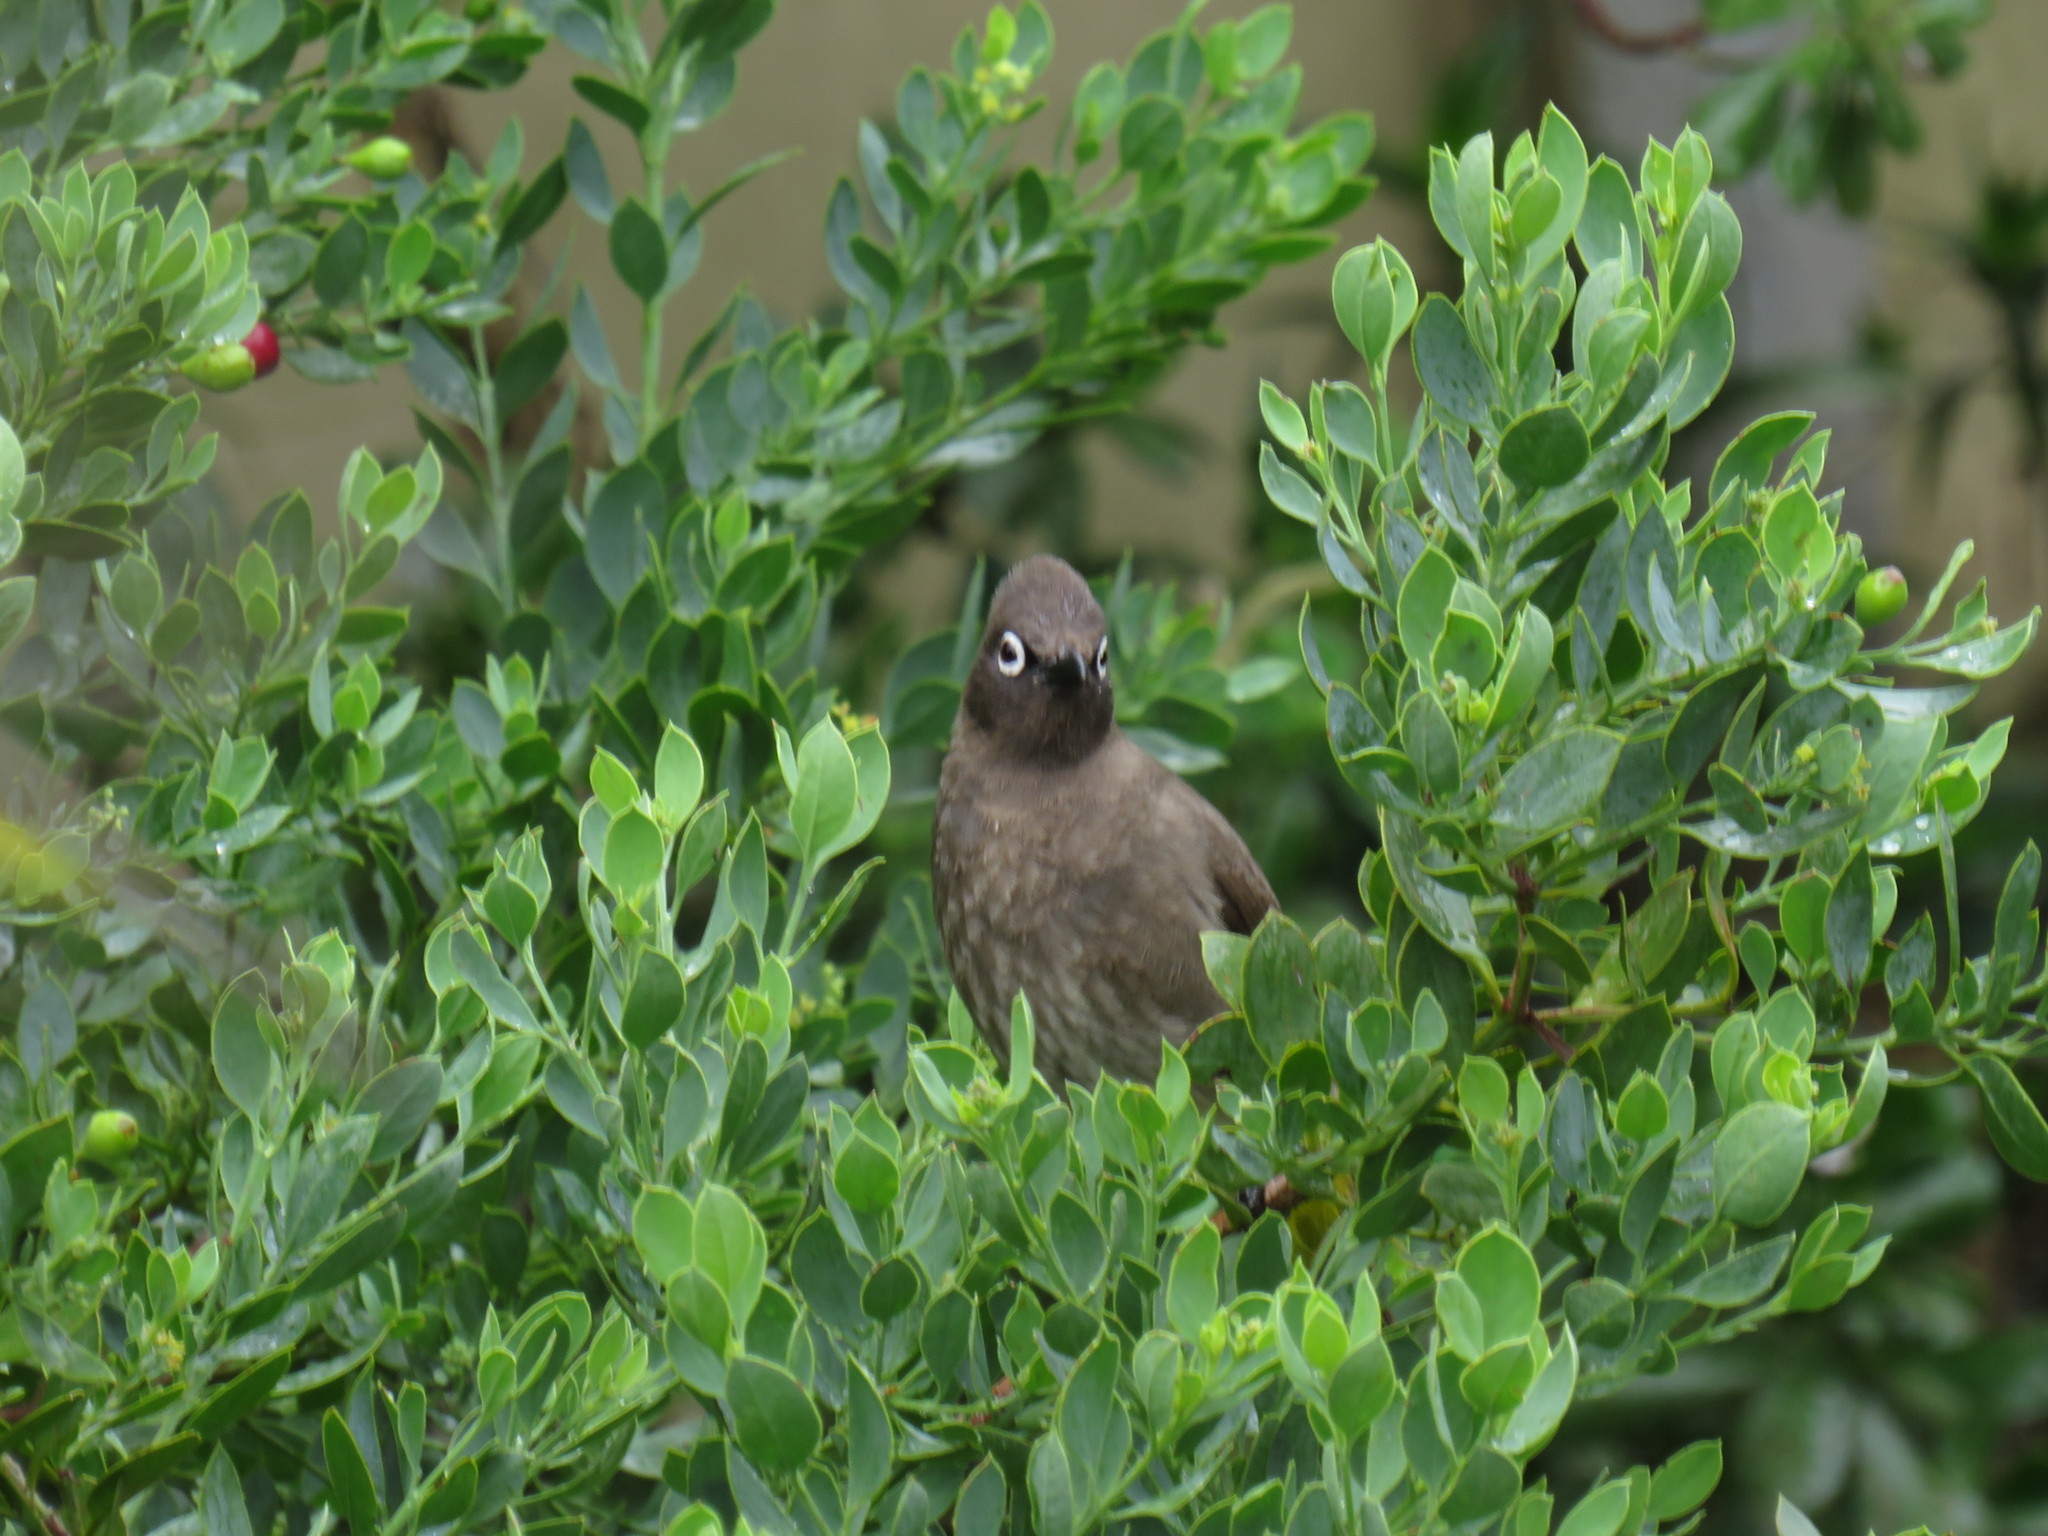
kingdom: Animalia
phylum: Chordata
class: Aves
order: Passeriformes
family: Pycnonotidae
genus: Pycnonotus
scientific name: Pycnonotus capensis
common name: Cape bulbul
